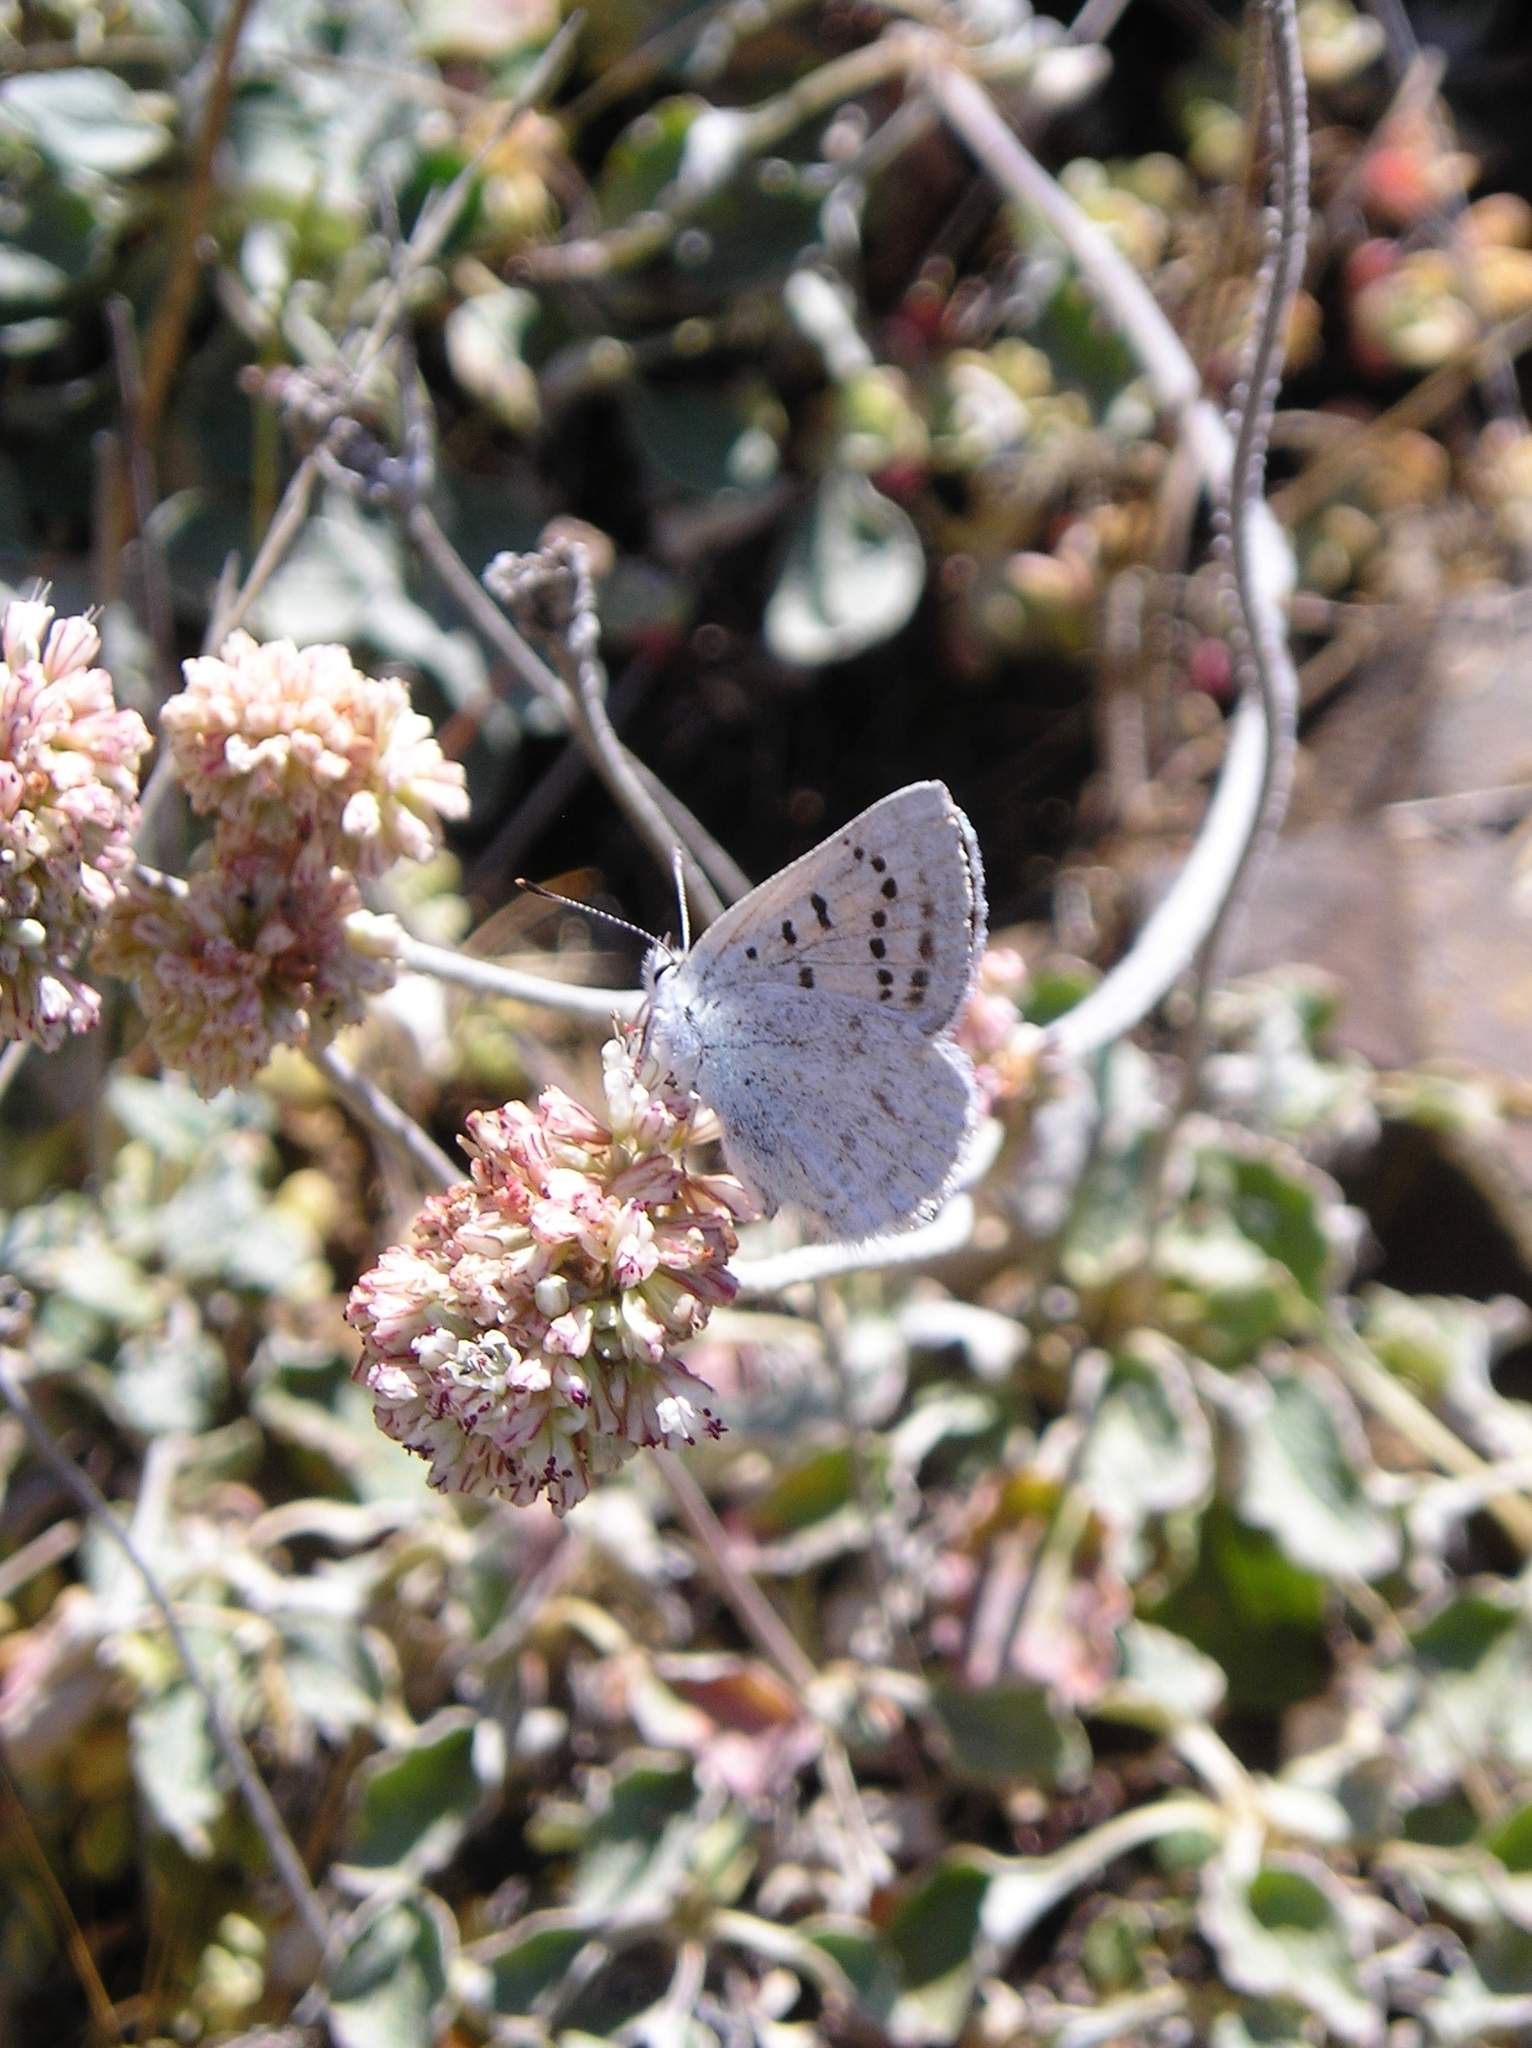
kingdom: Animalia
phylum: Arthropoda
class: Insecta
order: Lepidoptera
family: Lycaenidae
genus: Tharsalea
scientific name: Tharsalea heteronea
